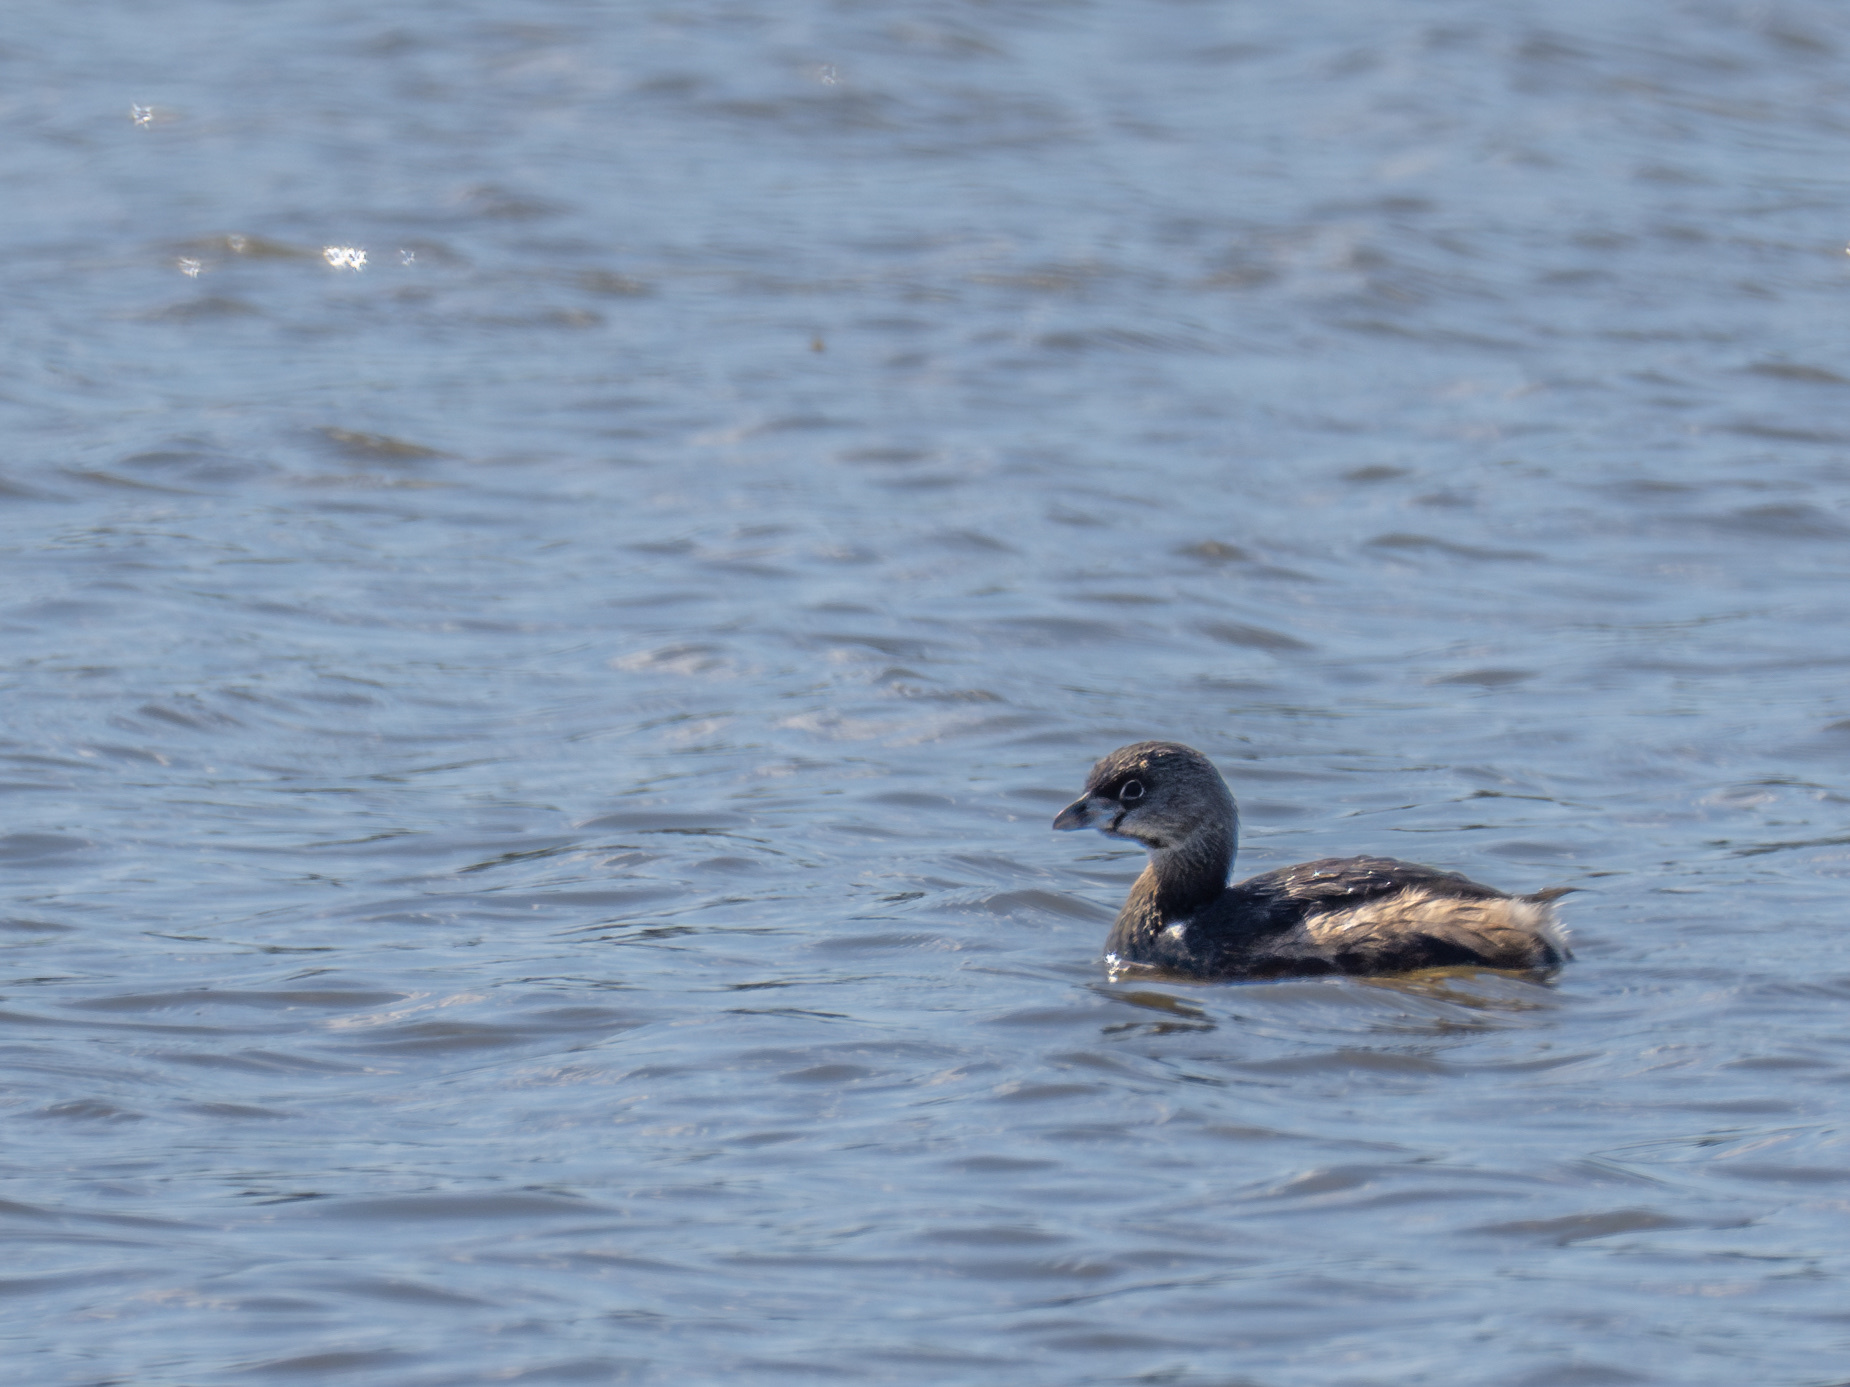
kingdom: Animalia
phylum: Chordata
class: Aves
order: Podicipediformes
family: Podicipedidae
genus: Podilymbus
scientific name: Podilymbus podiceps
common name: Pied-billed grebe
